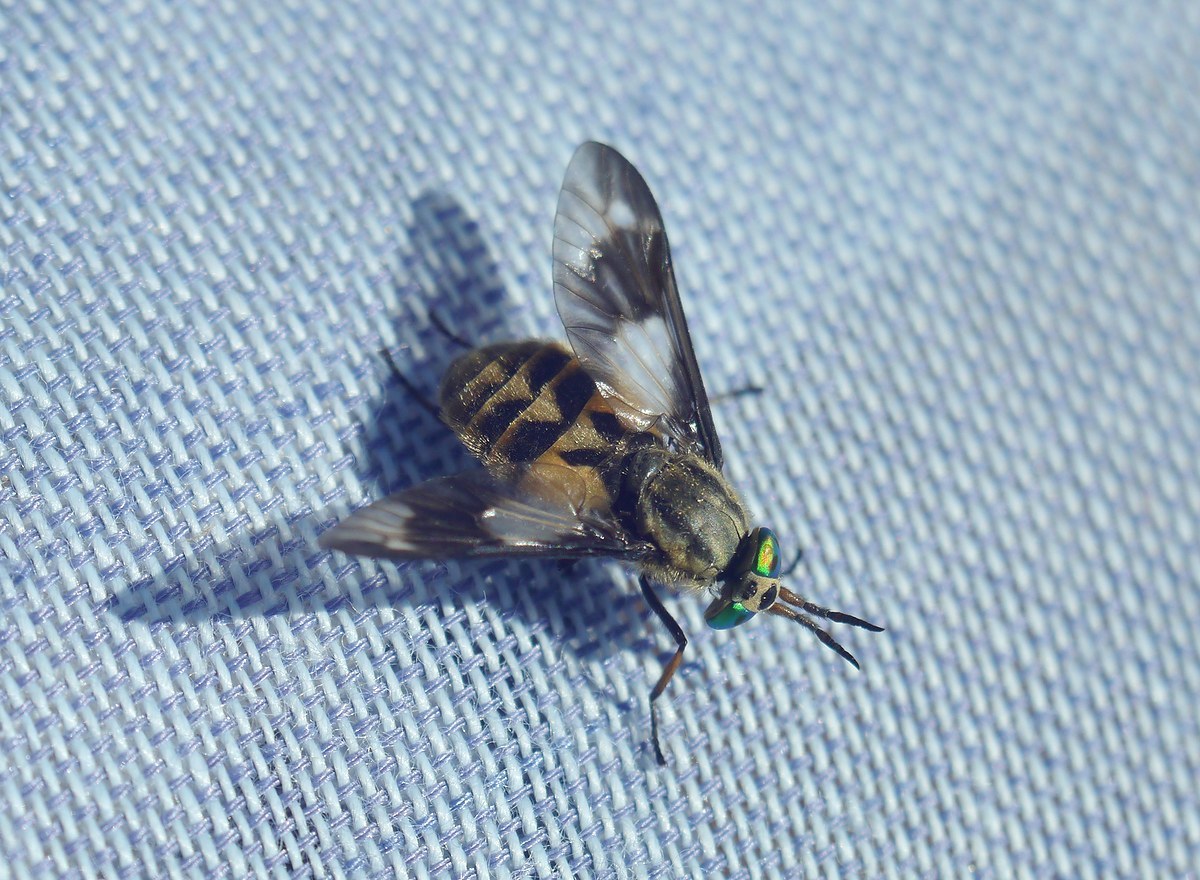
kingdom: Animalia
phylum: Arthropoda
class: Insecta
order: Diptera
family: Tabanidae
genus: Chrysops
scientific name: Chrysops relictus
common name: Twin-lobed deerfly
